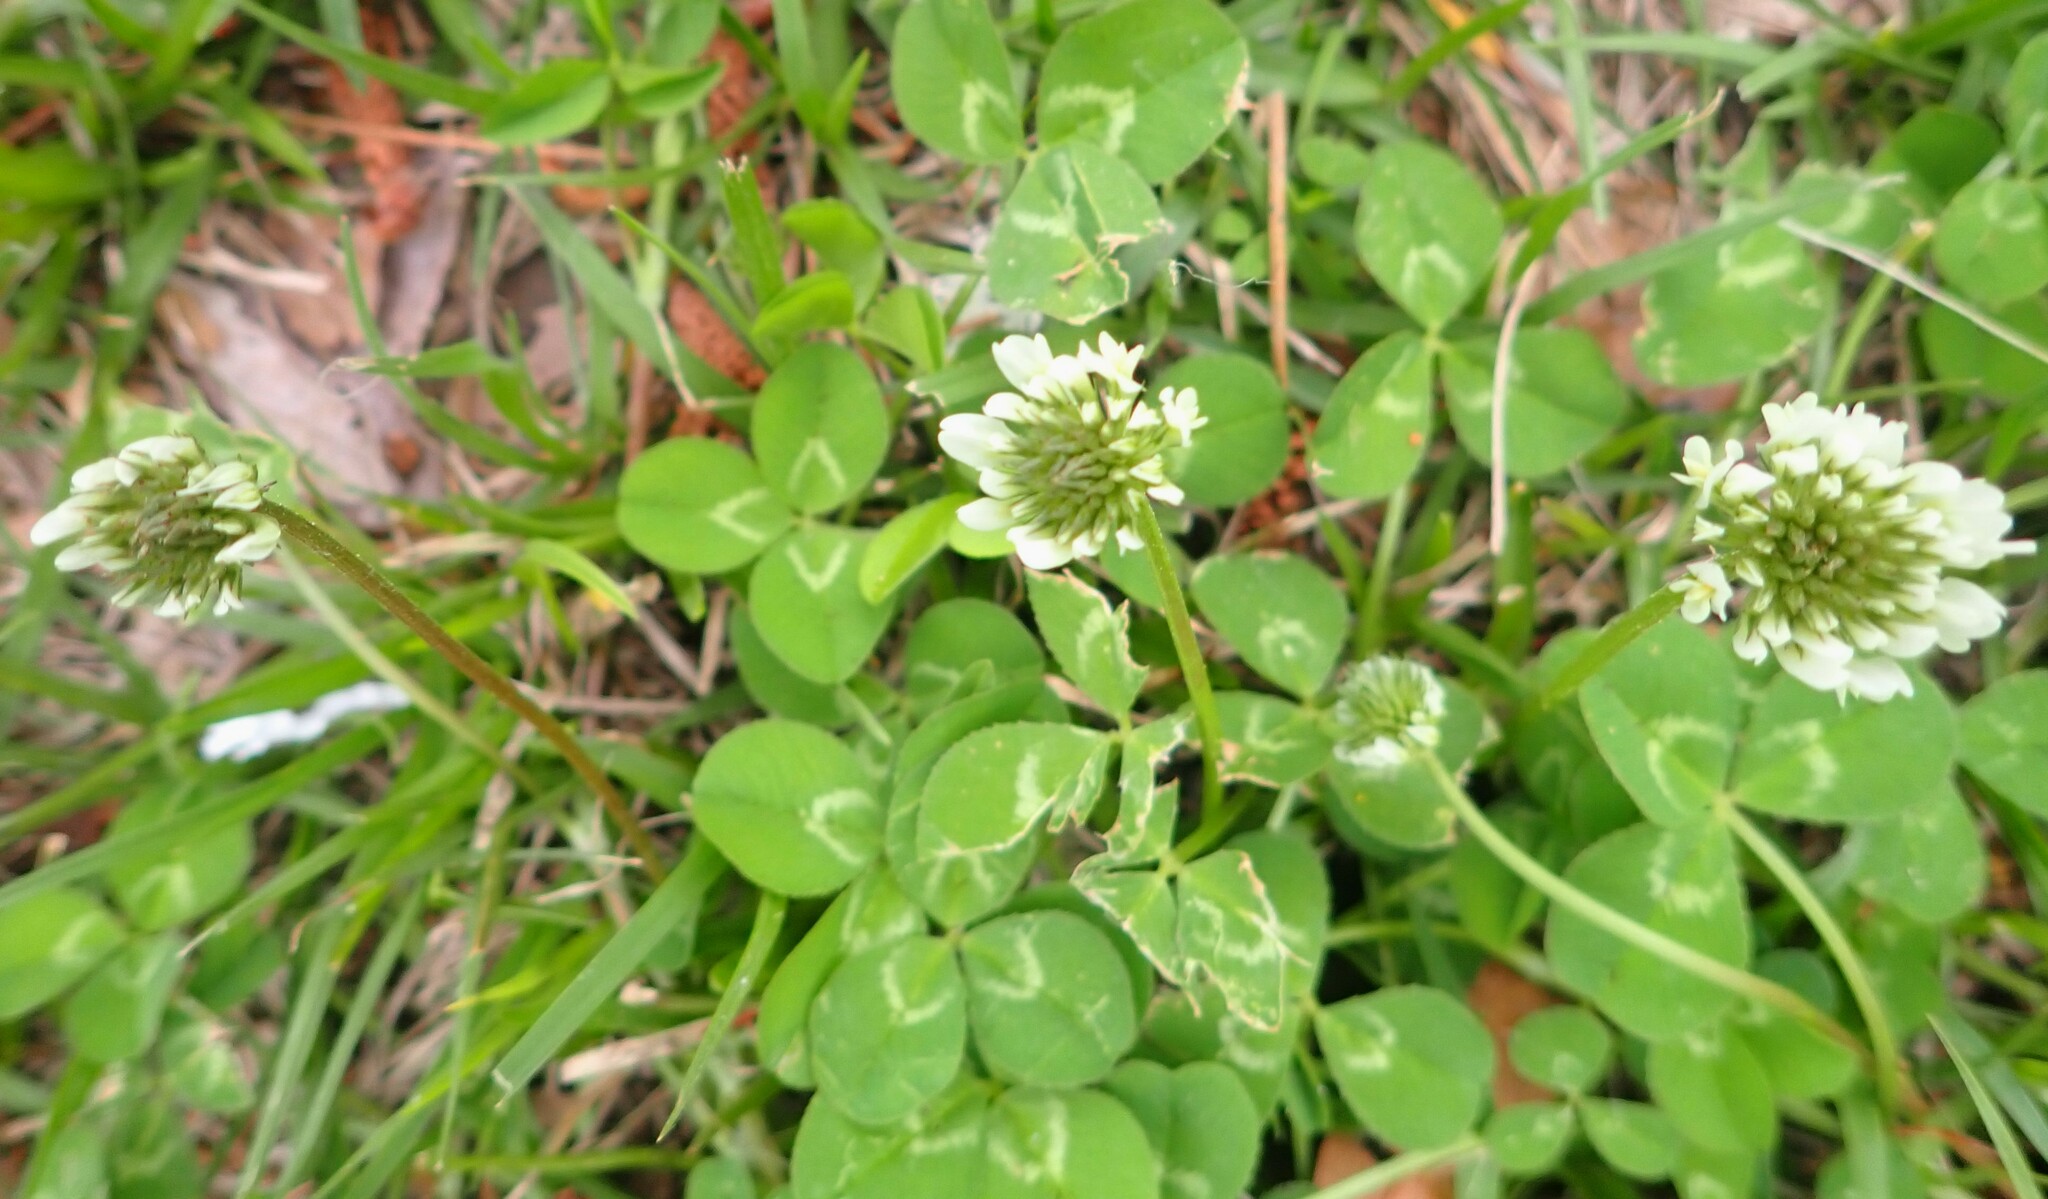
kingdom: Plantae
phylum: Tracheophyta
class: Magnoliopsida
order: Fabales
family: Fabaceae
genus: Trifolium
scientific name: Trifolium repens
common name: White clover
